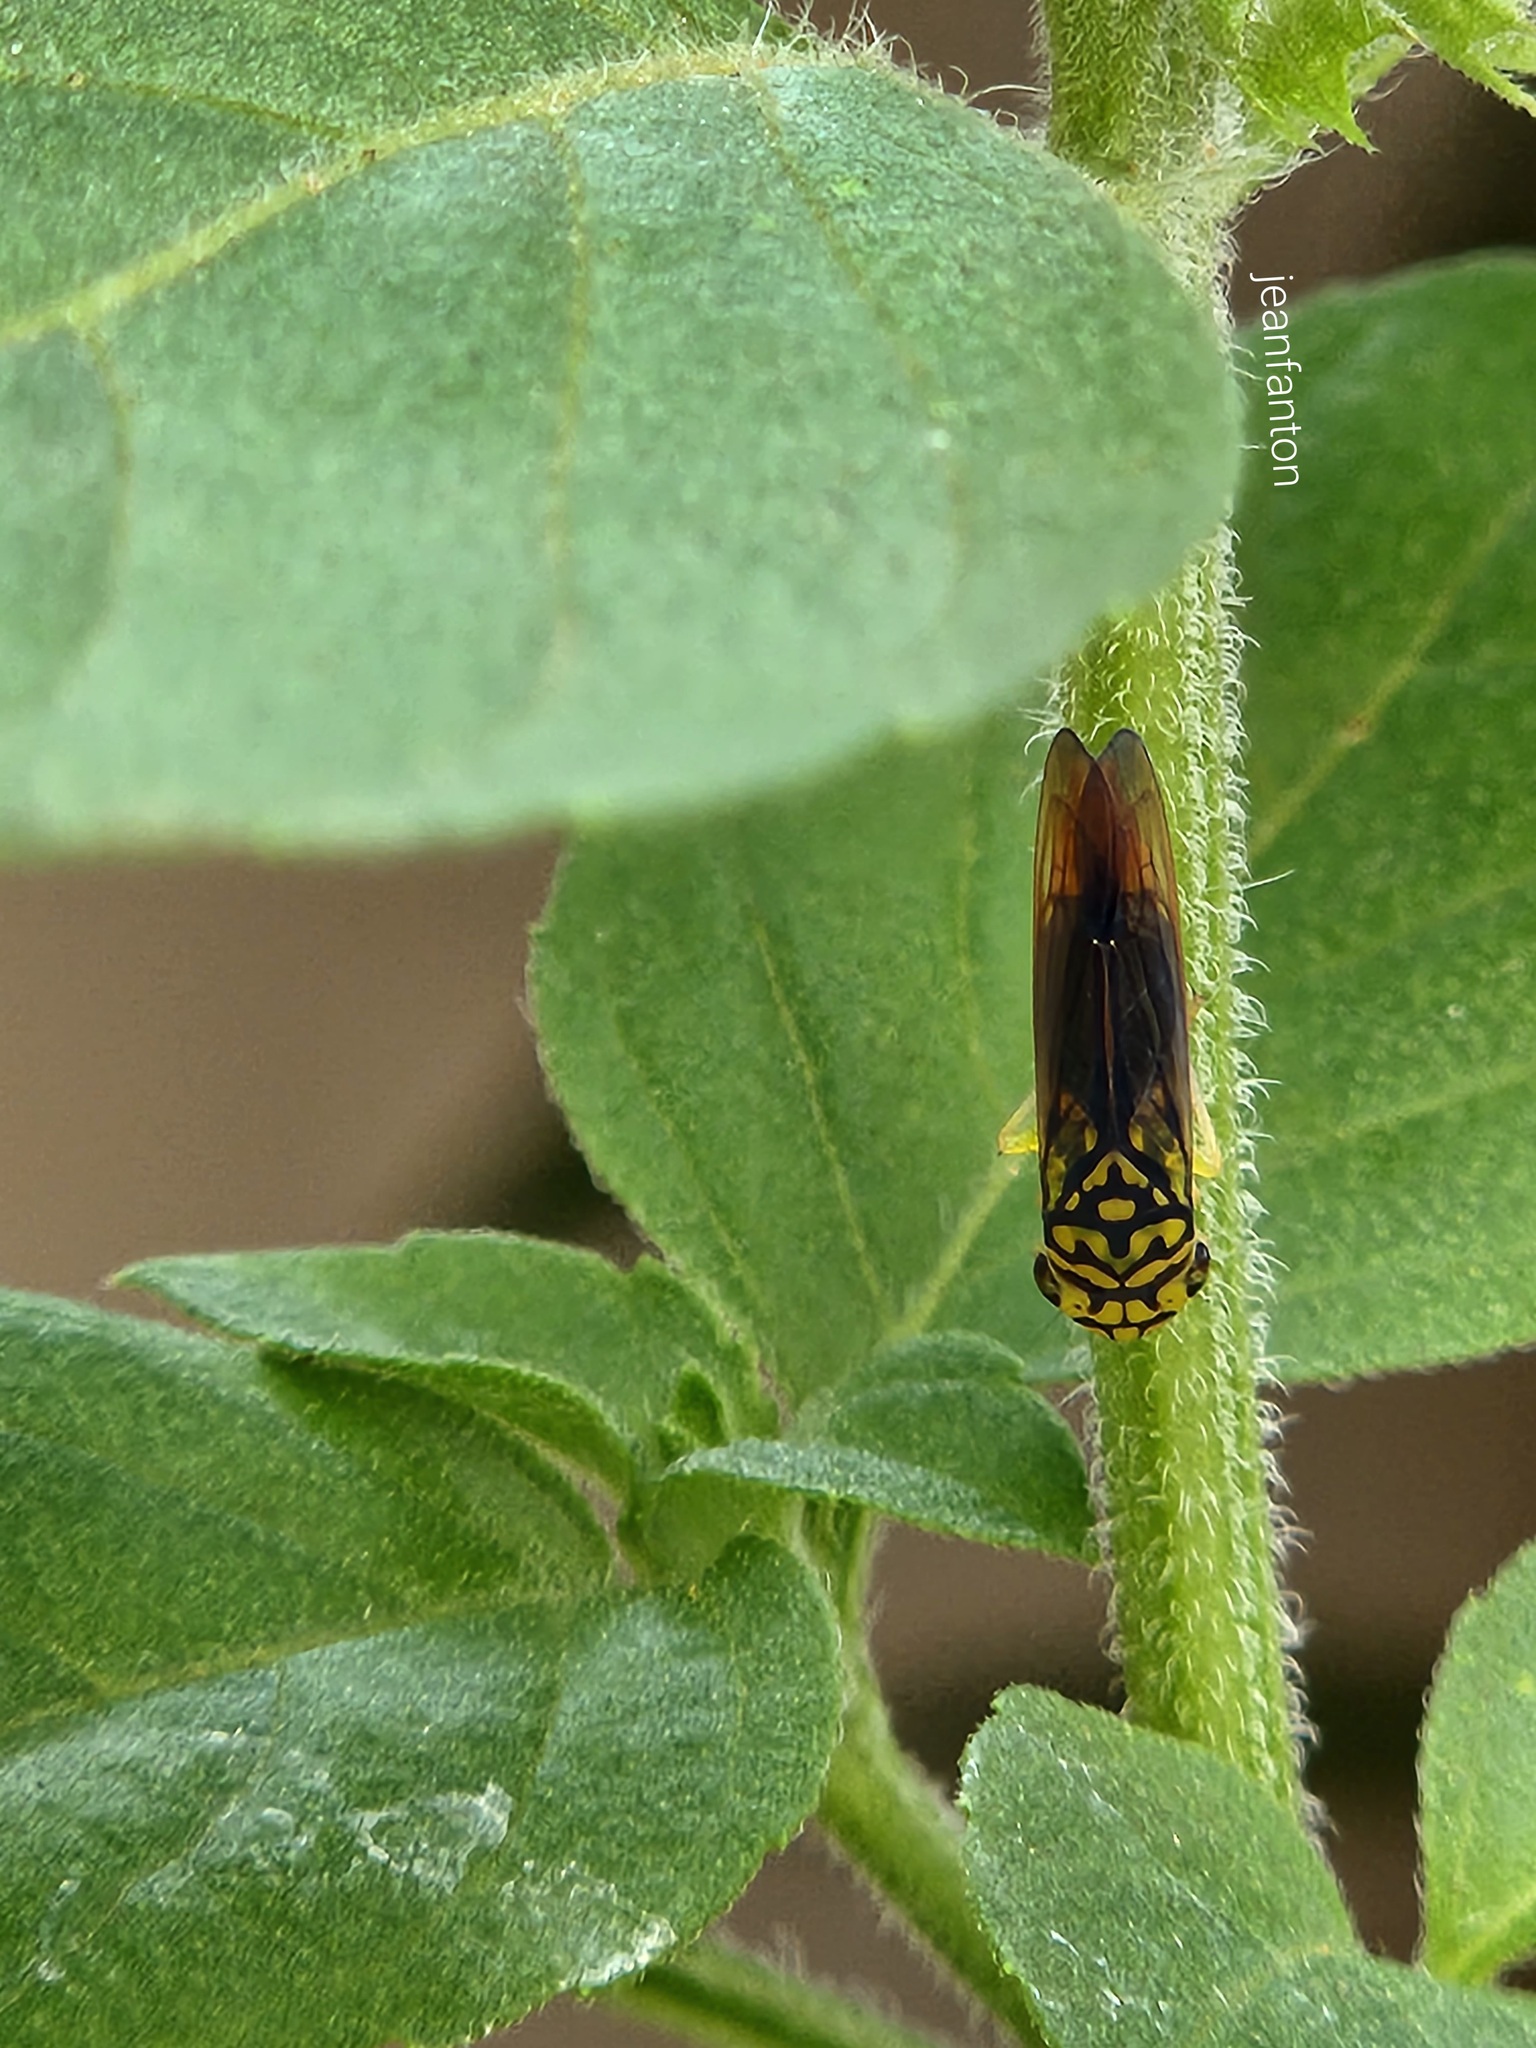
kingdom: Animalia
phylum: Arthropoda
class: Insecta
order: Hemiptera
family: Cicadellidae
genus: Dilobopterus
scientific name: Dilobopterus costalimai
